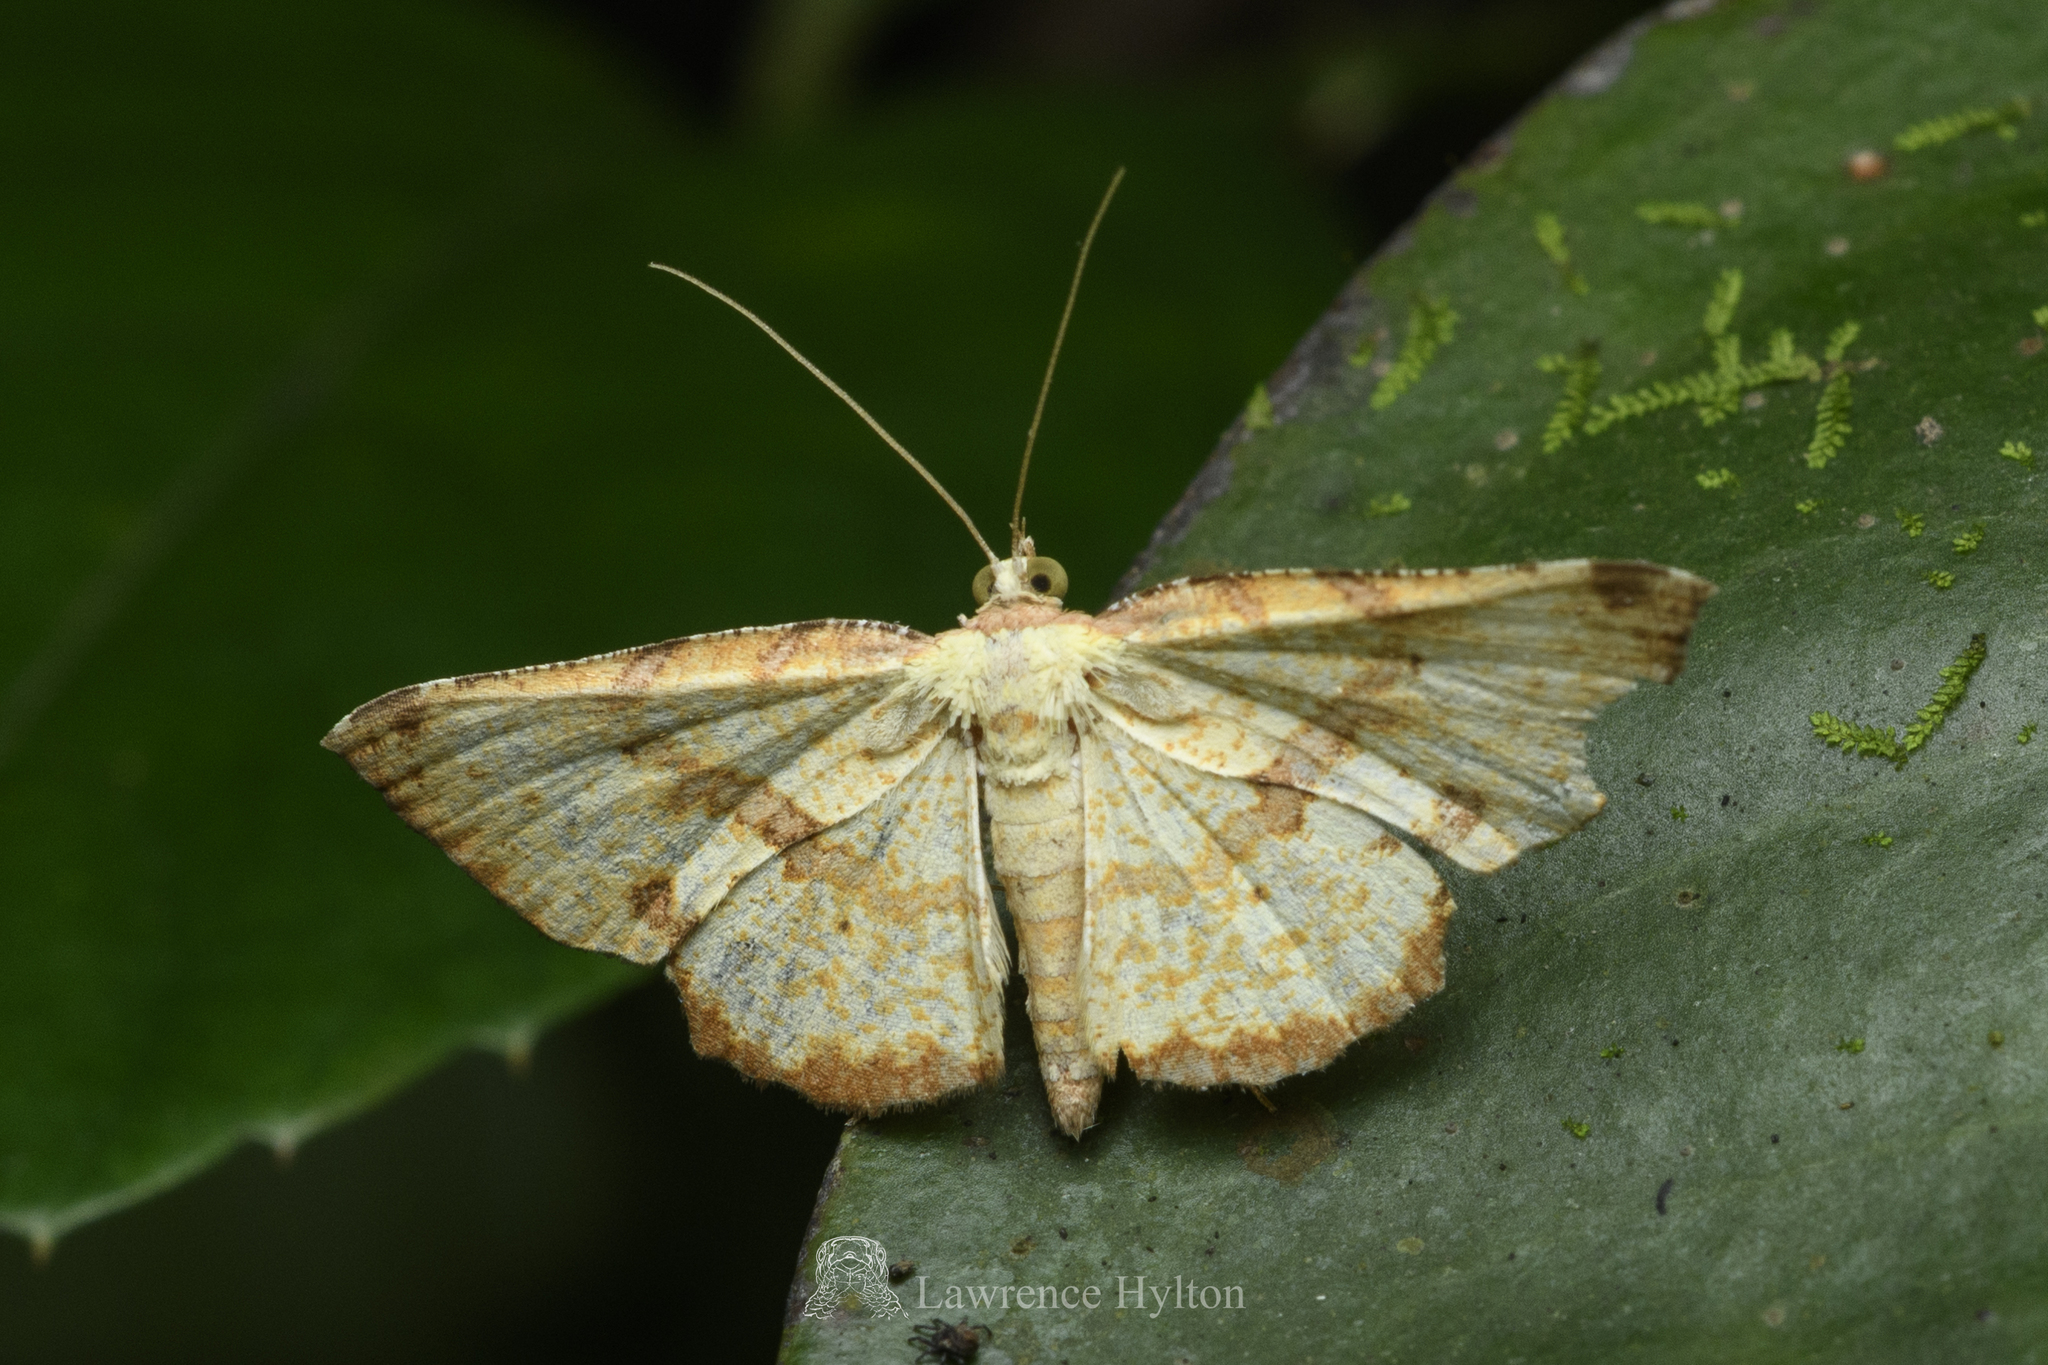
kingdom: Animalia
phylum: Arthropoda
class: Insecta
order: Lepidoptera
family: Geometridae
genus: Corymica
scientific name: Corymica deducta
